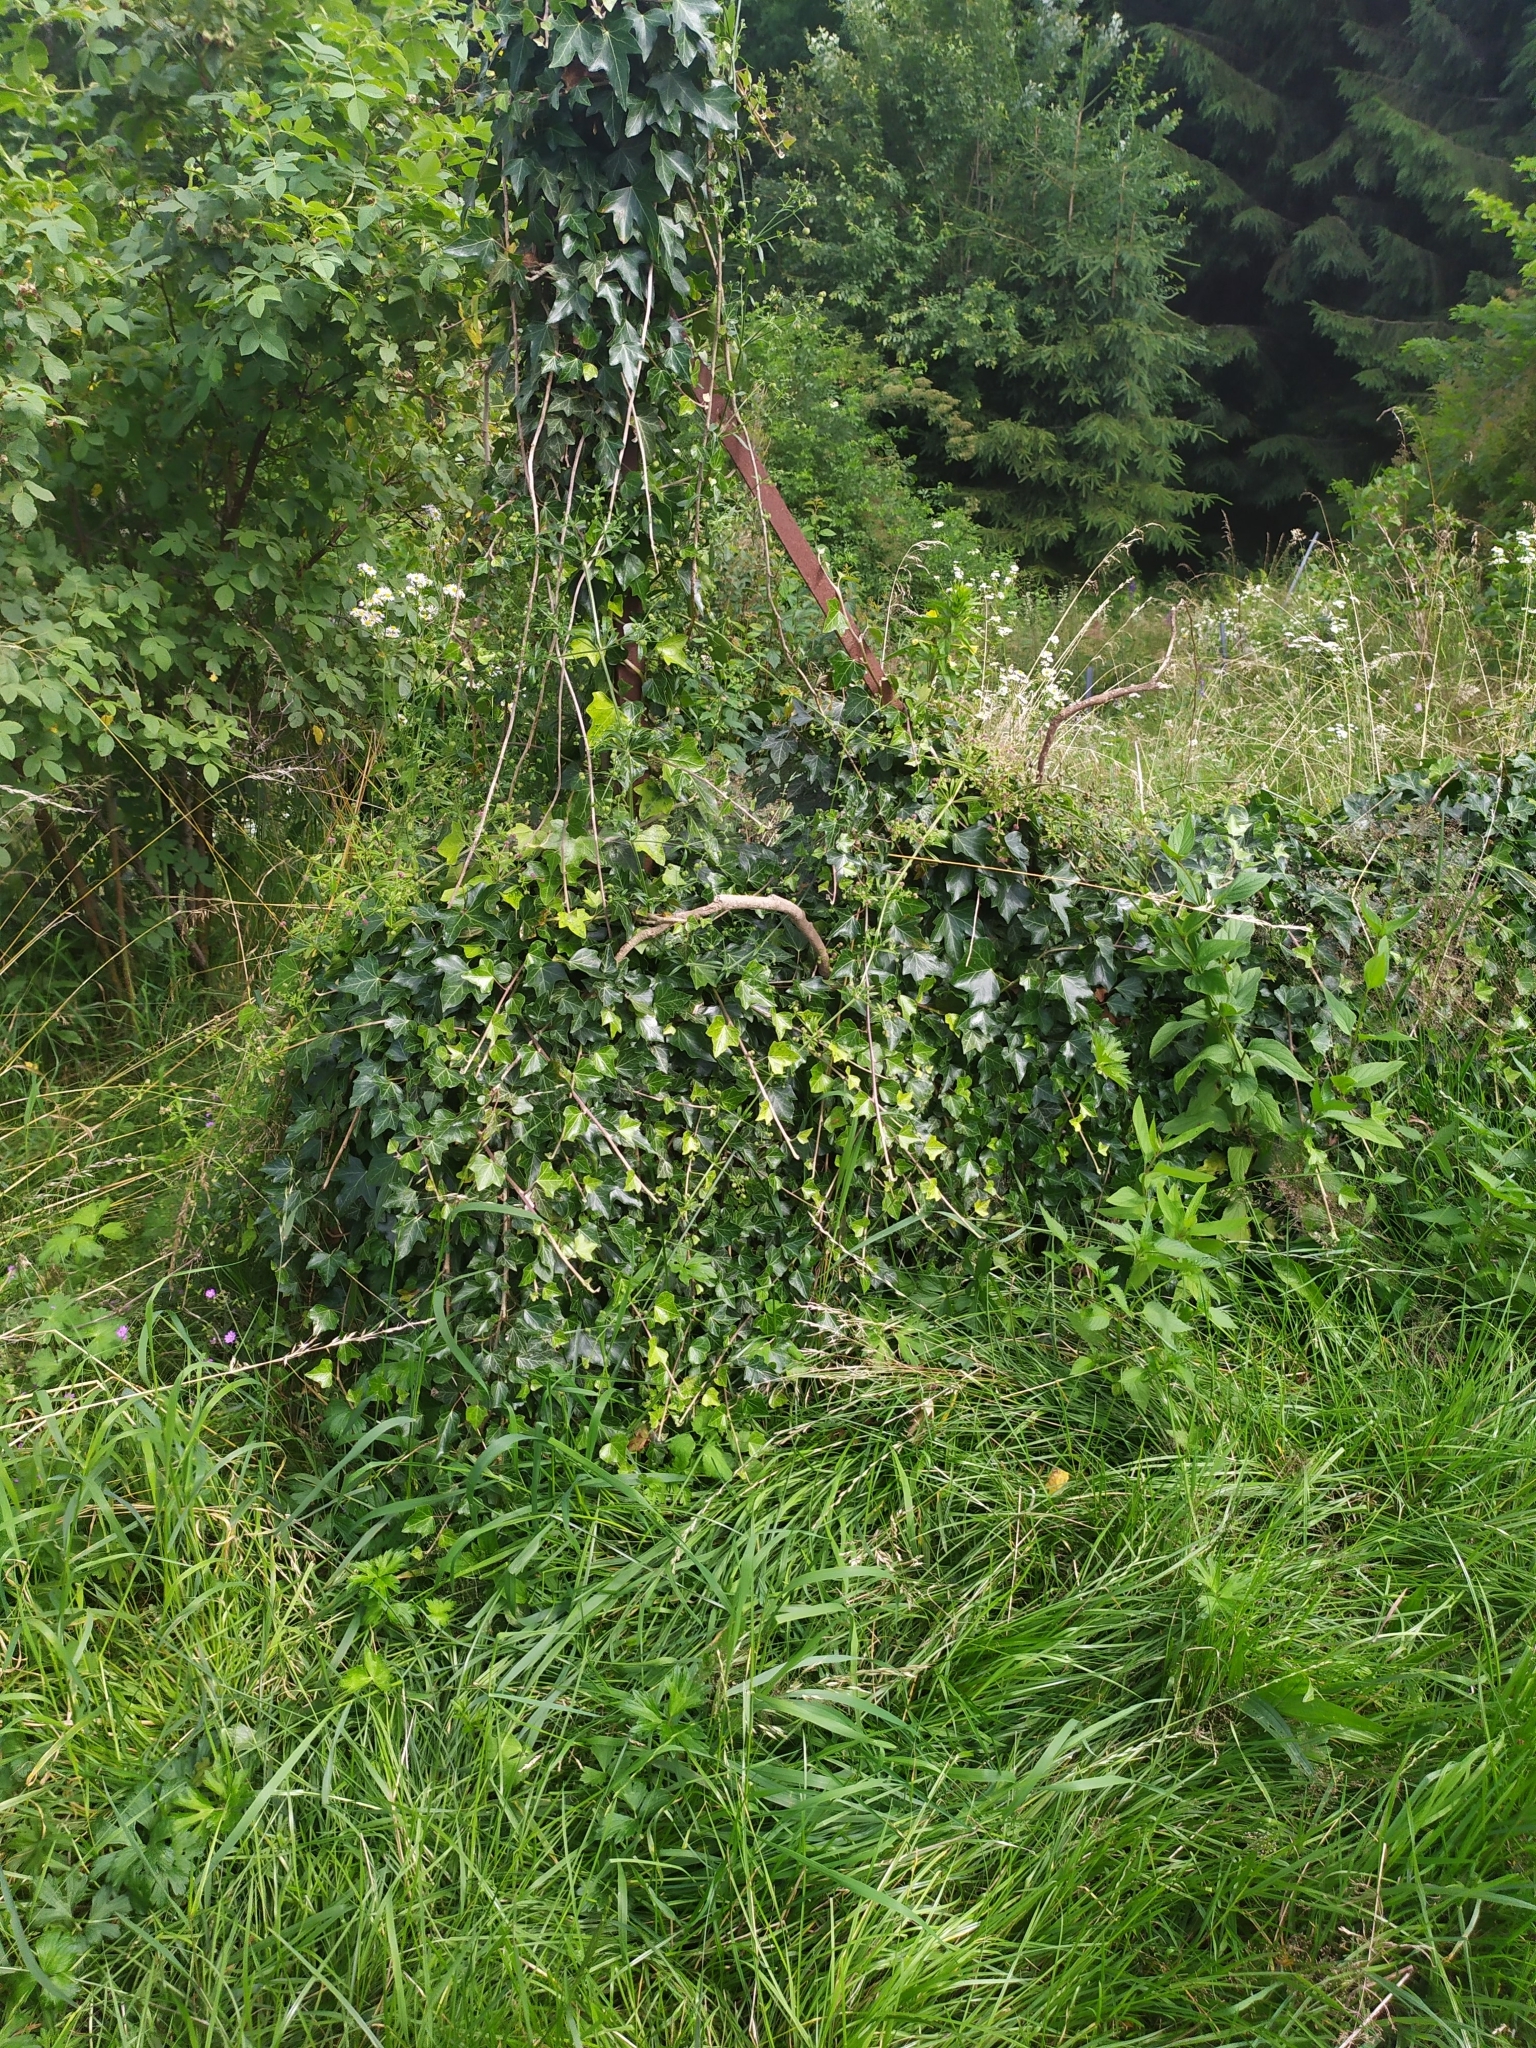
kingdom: Plantae
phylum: Tracheophyta
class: Magnoliopsida
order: Apiales
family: Araliaceae
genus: Hedera
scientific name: Hedera helix
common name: Ivy
